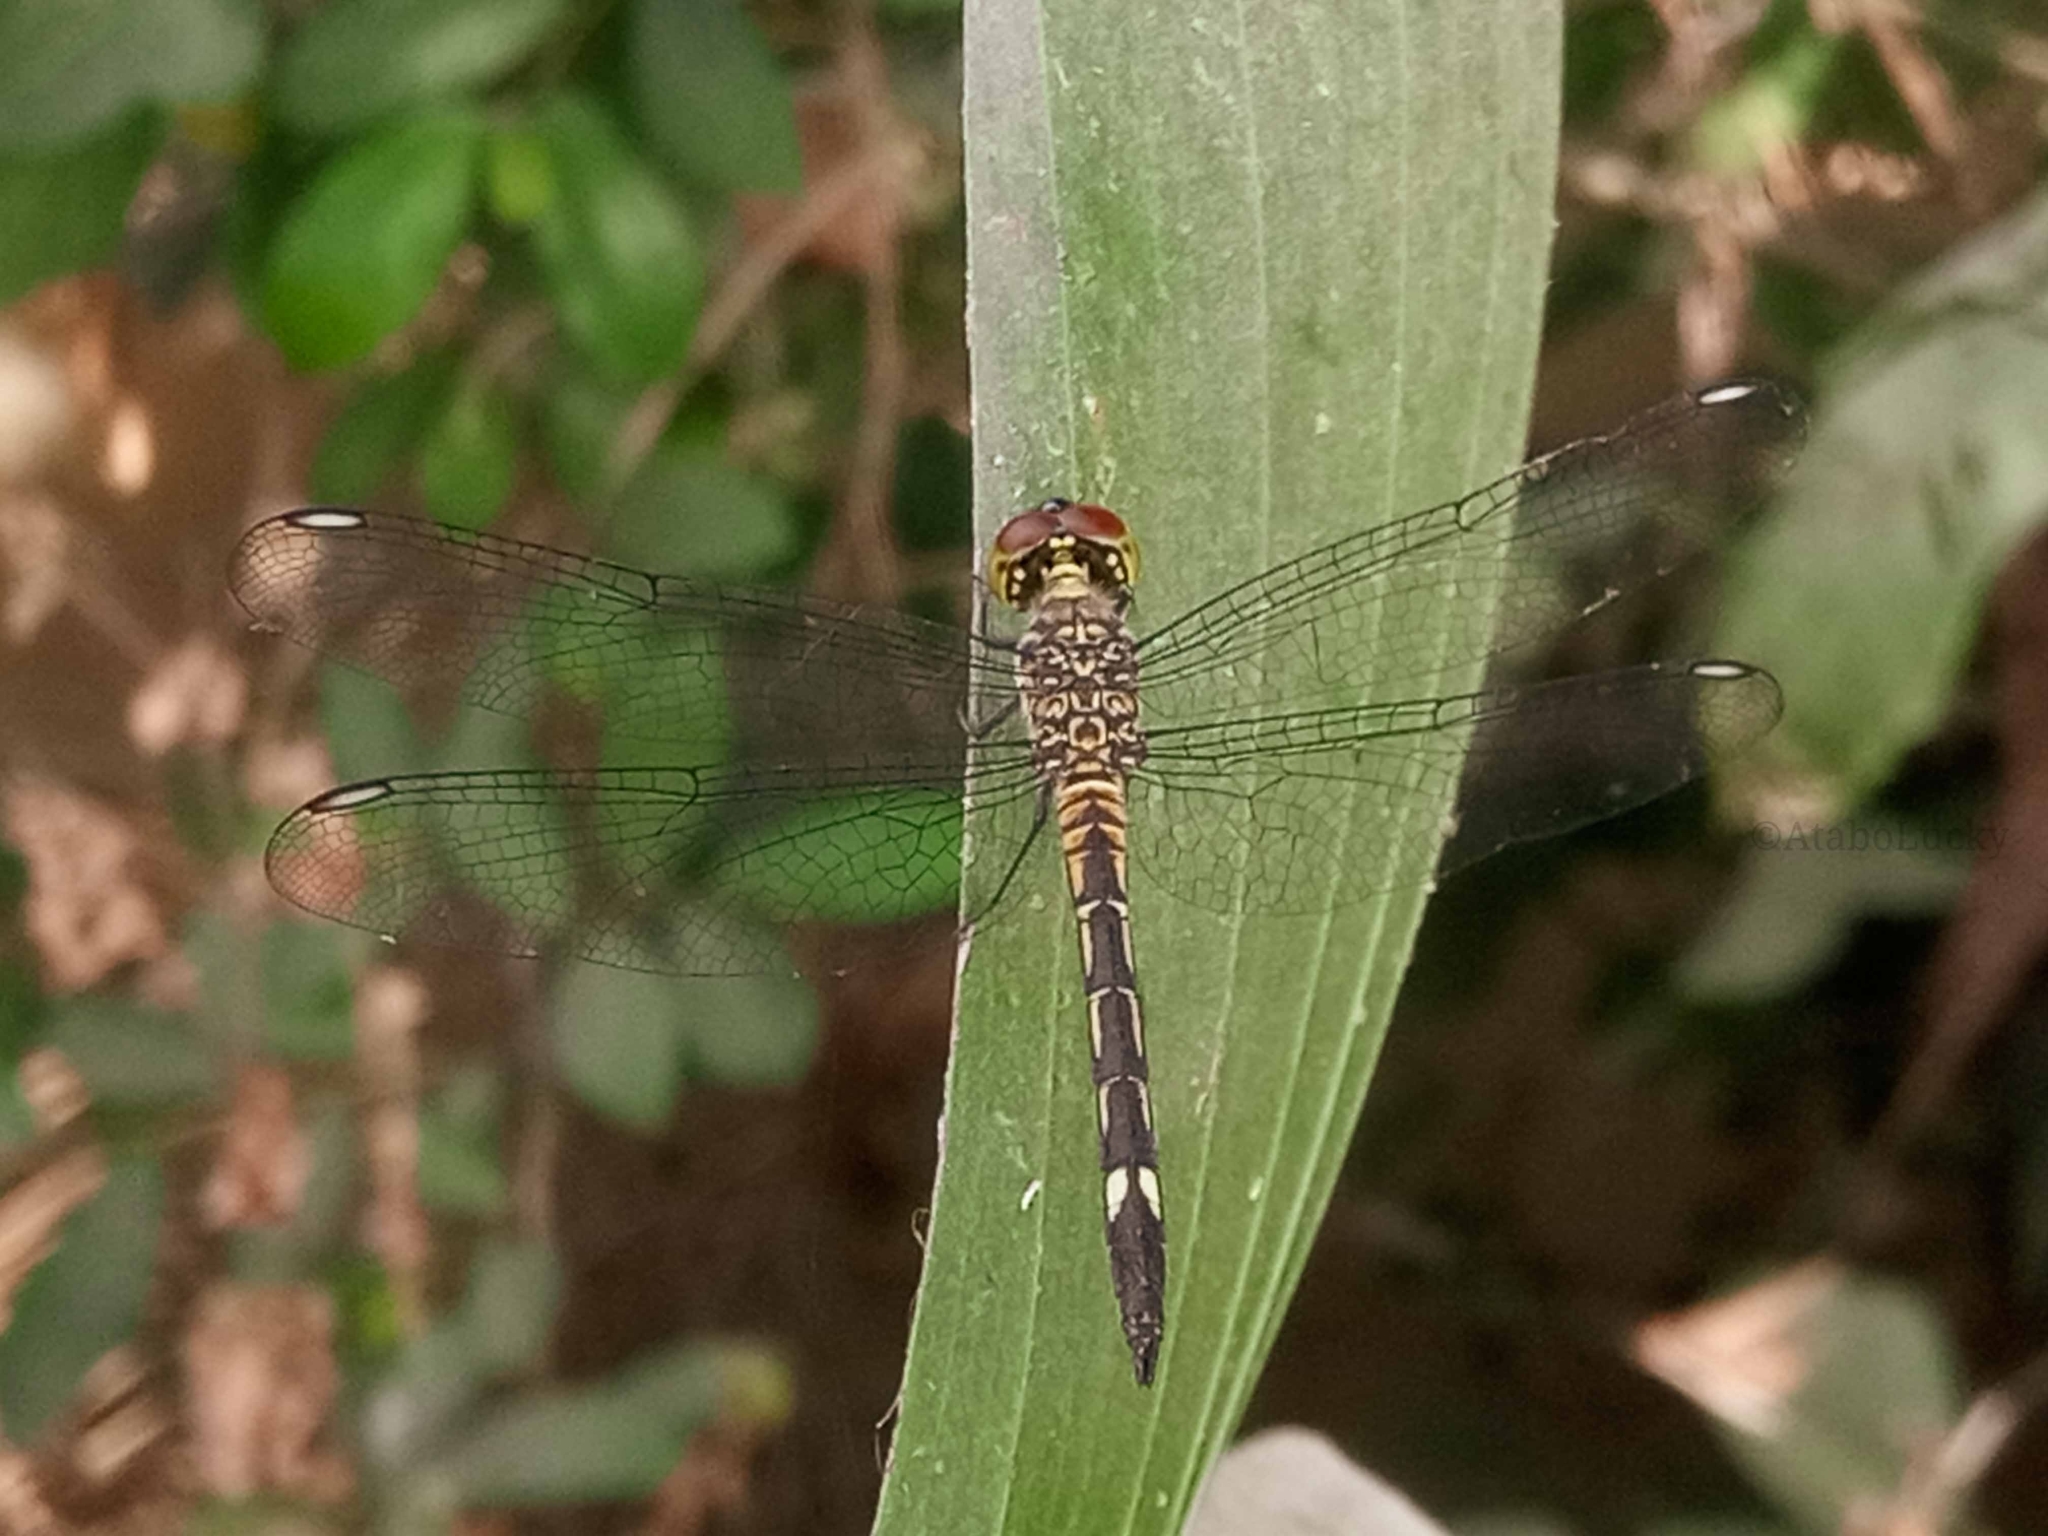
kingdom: Animalia
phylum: Arthropoda
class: Insecta
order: Odonata
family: Libellulidae
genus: Chalcostephia
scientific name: Chalcostephia flavifrons
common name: Inspector
